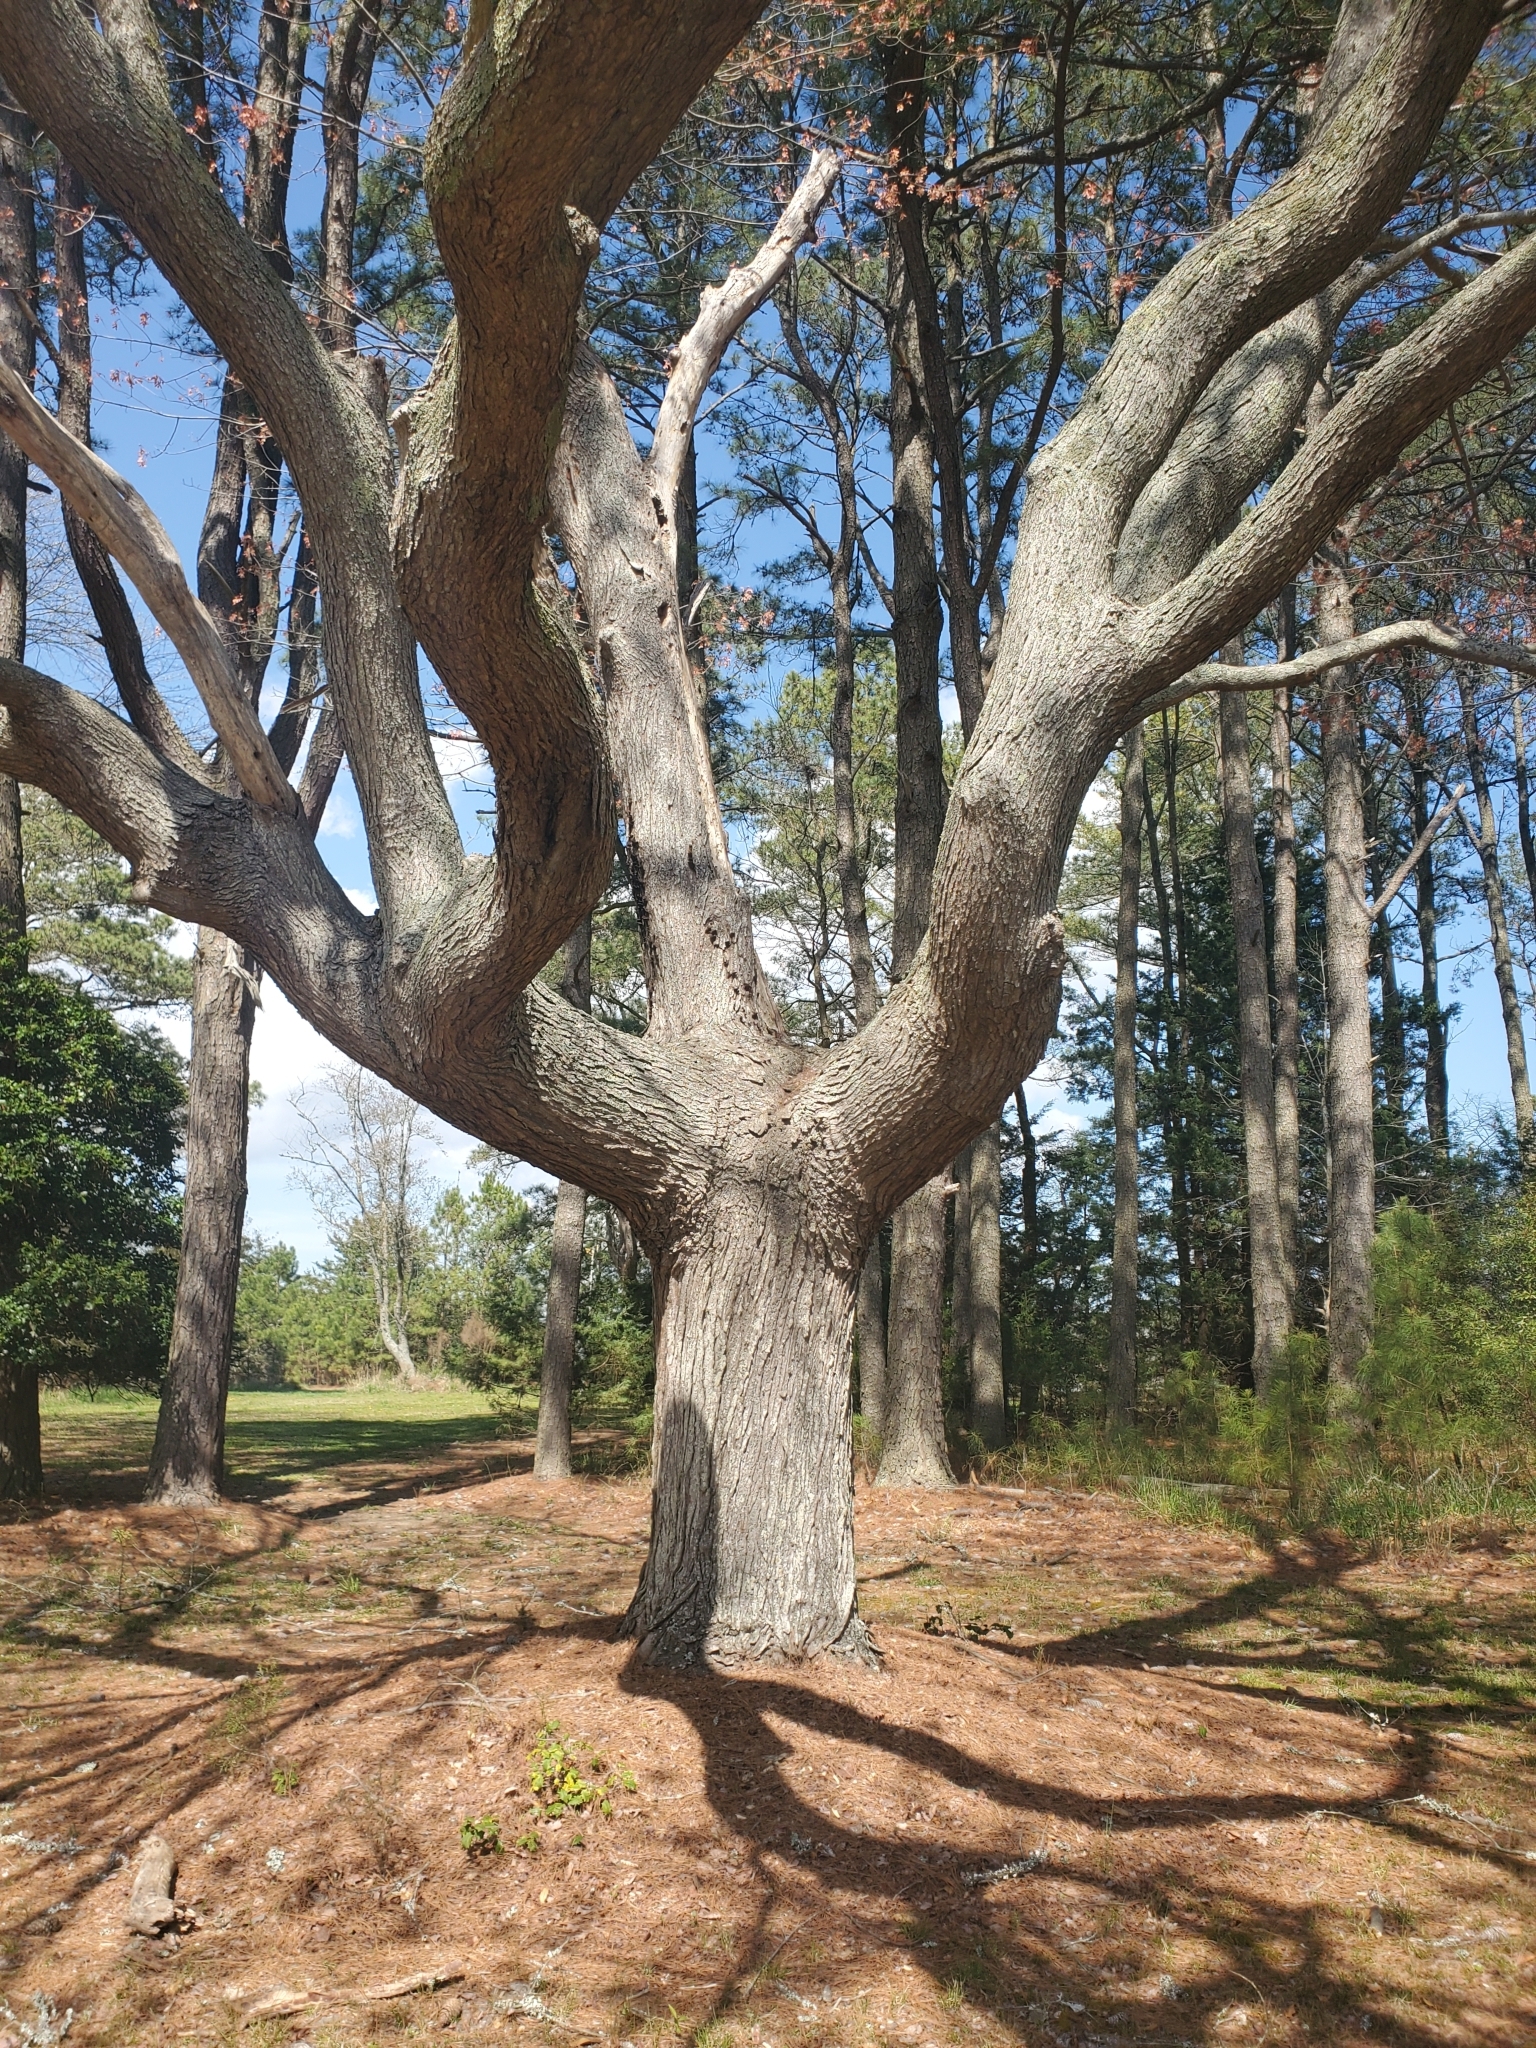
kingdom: Plantae
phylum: Tracheophyta
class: Magnoliopsida
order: Sapindales
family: Sapindaceae
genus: Acer
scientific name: Acer rubrum
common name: Red maple
